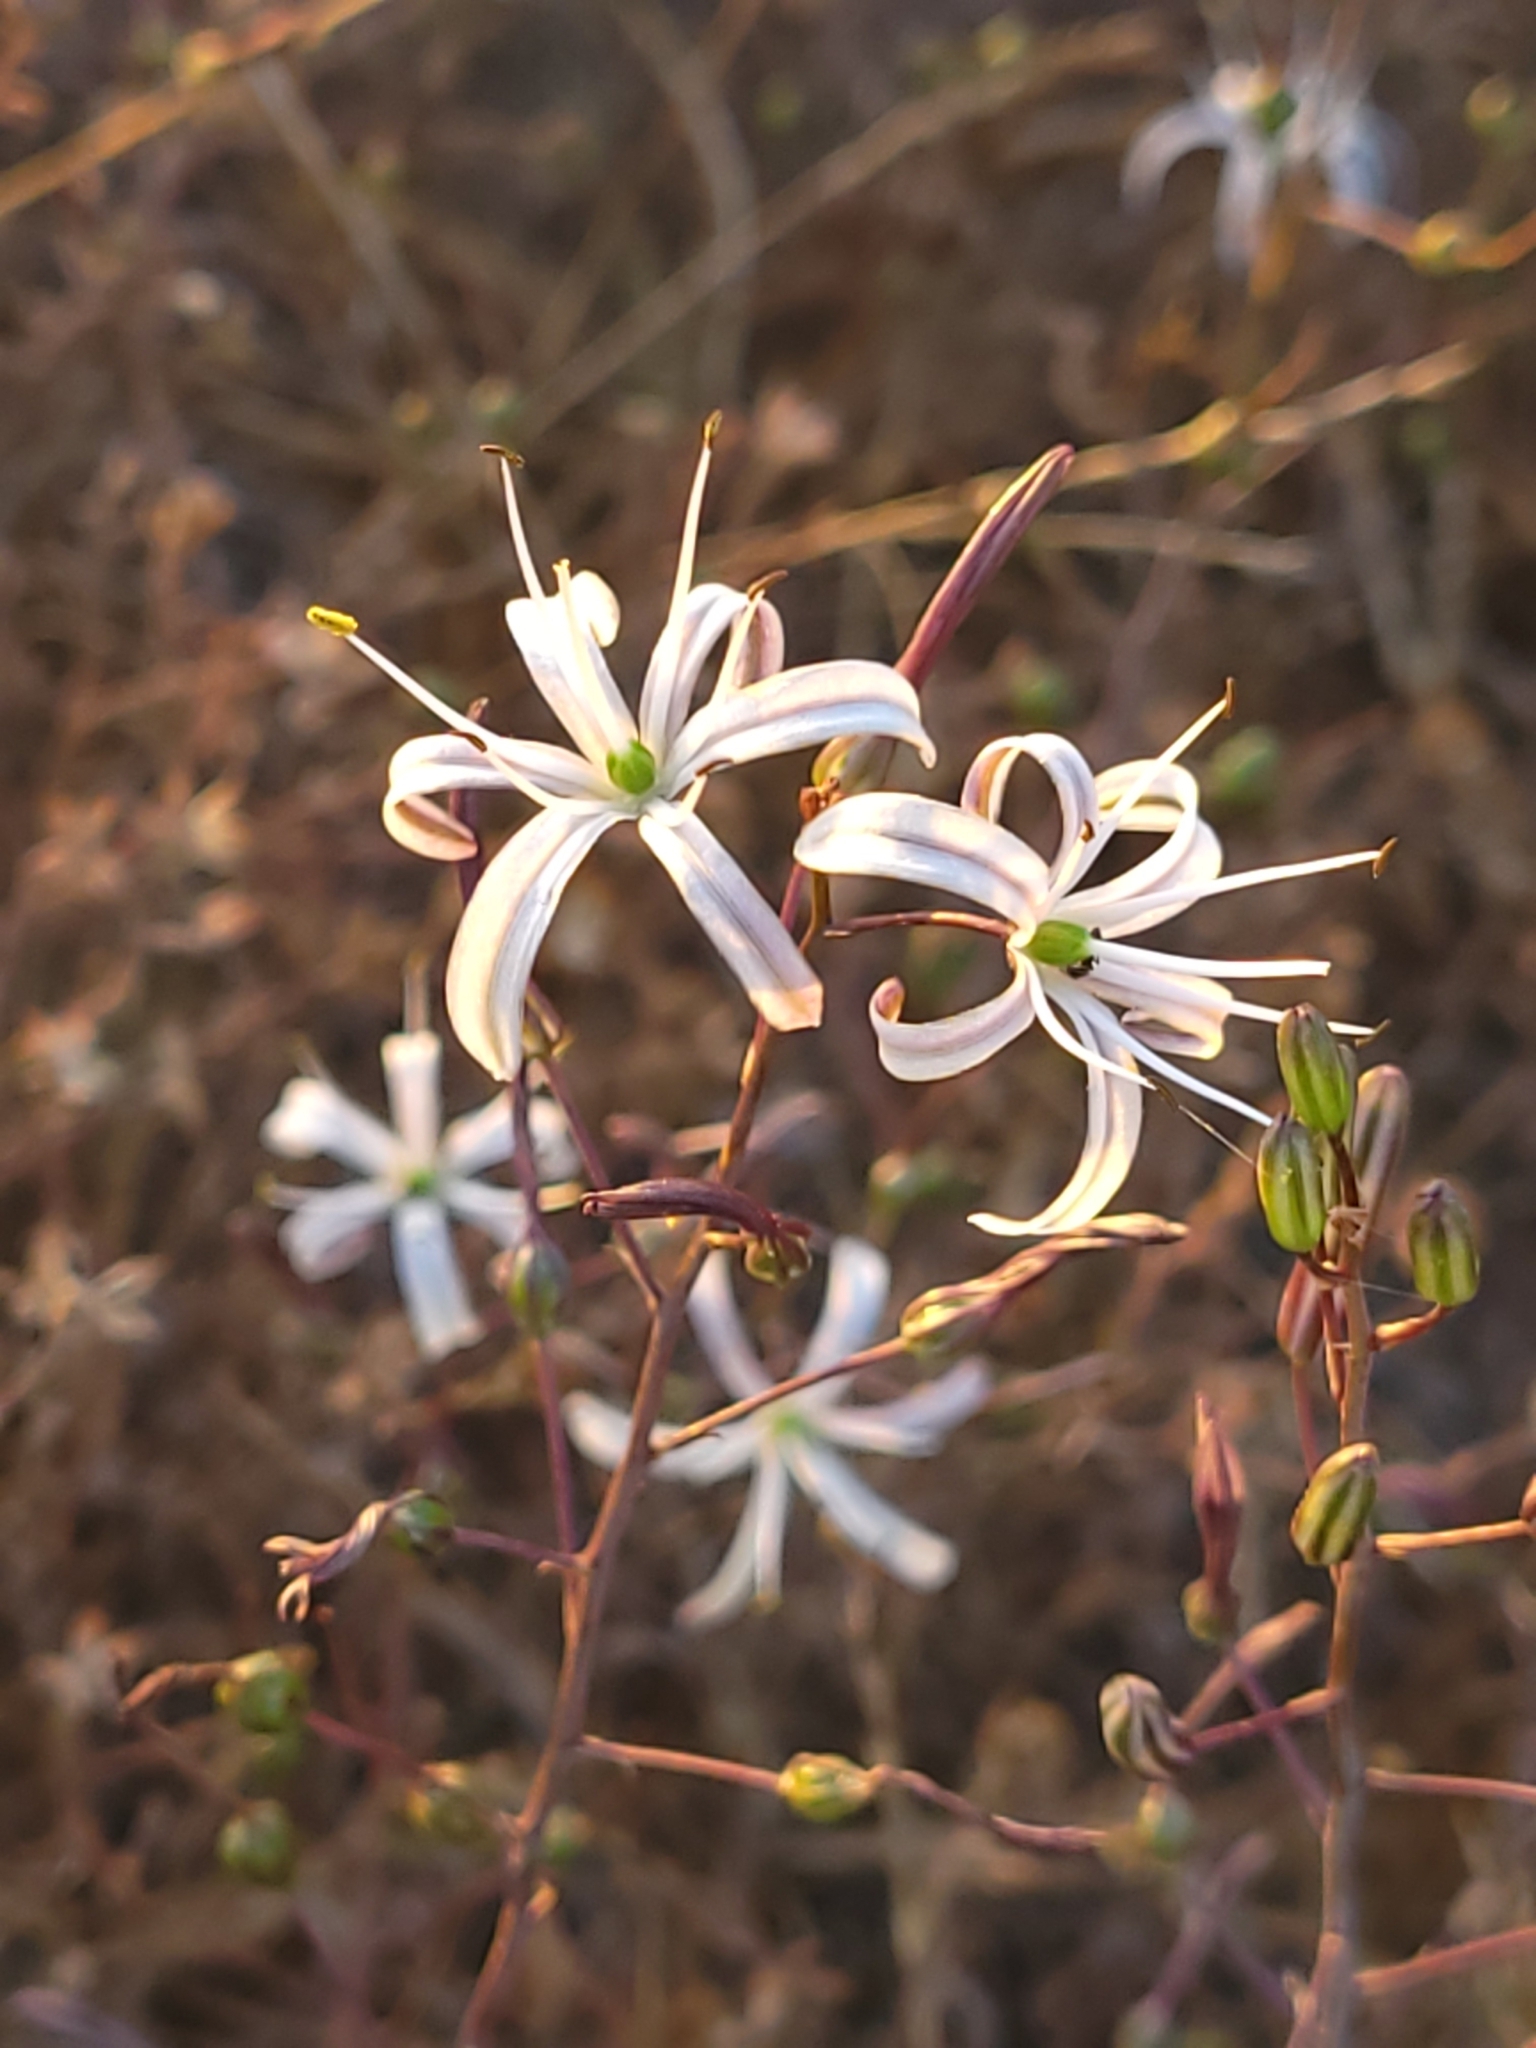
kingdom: Plantae
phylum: Tracheophyta
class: Liliopsida
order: Asparagales
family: Asparagaceae
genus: Chlorogalum
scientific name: Chlorogalum pomeridianum
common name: Amole
